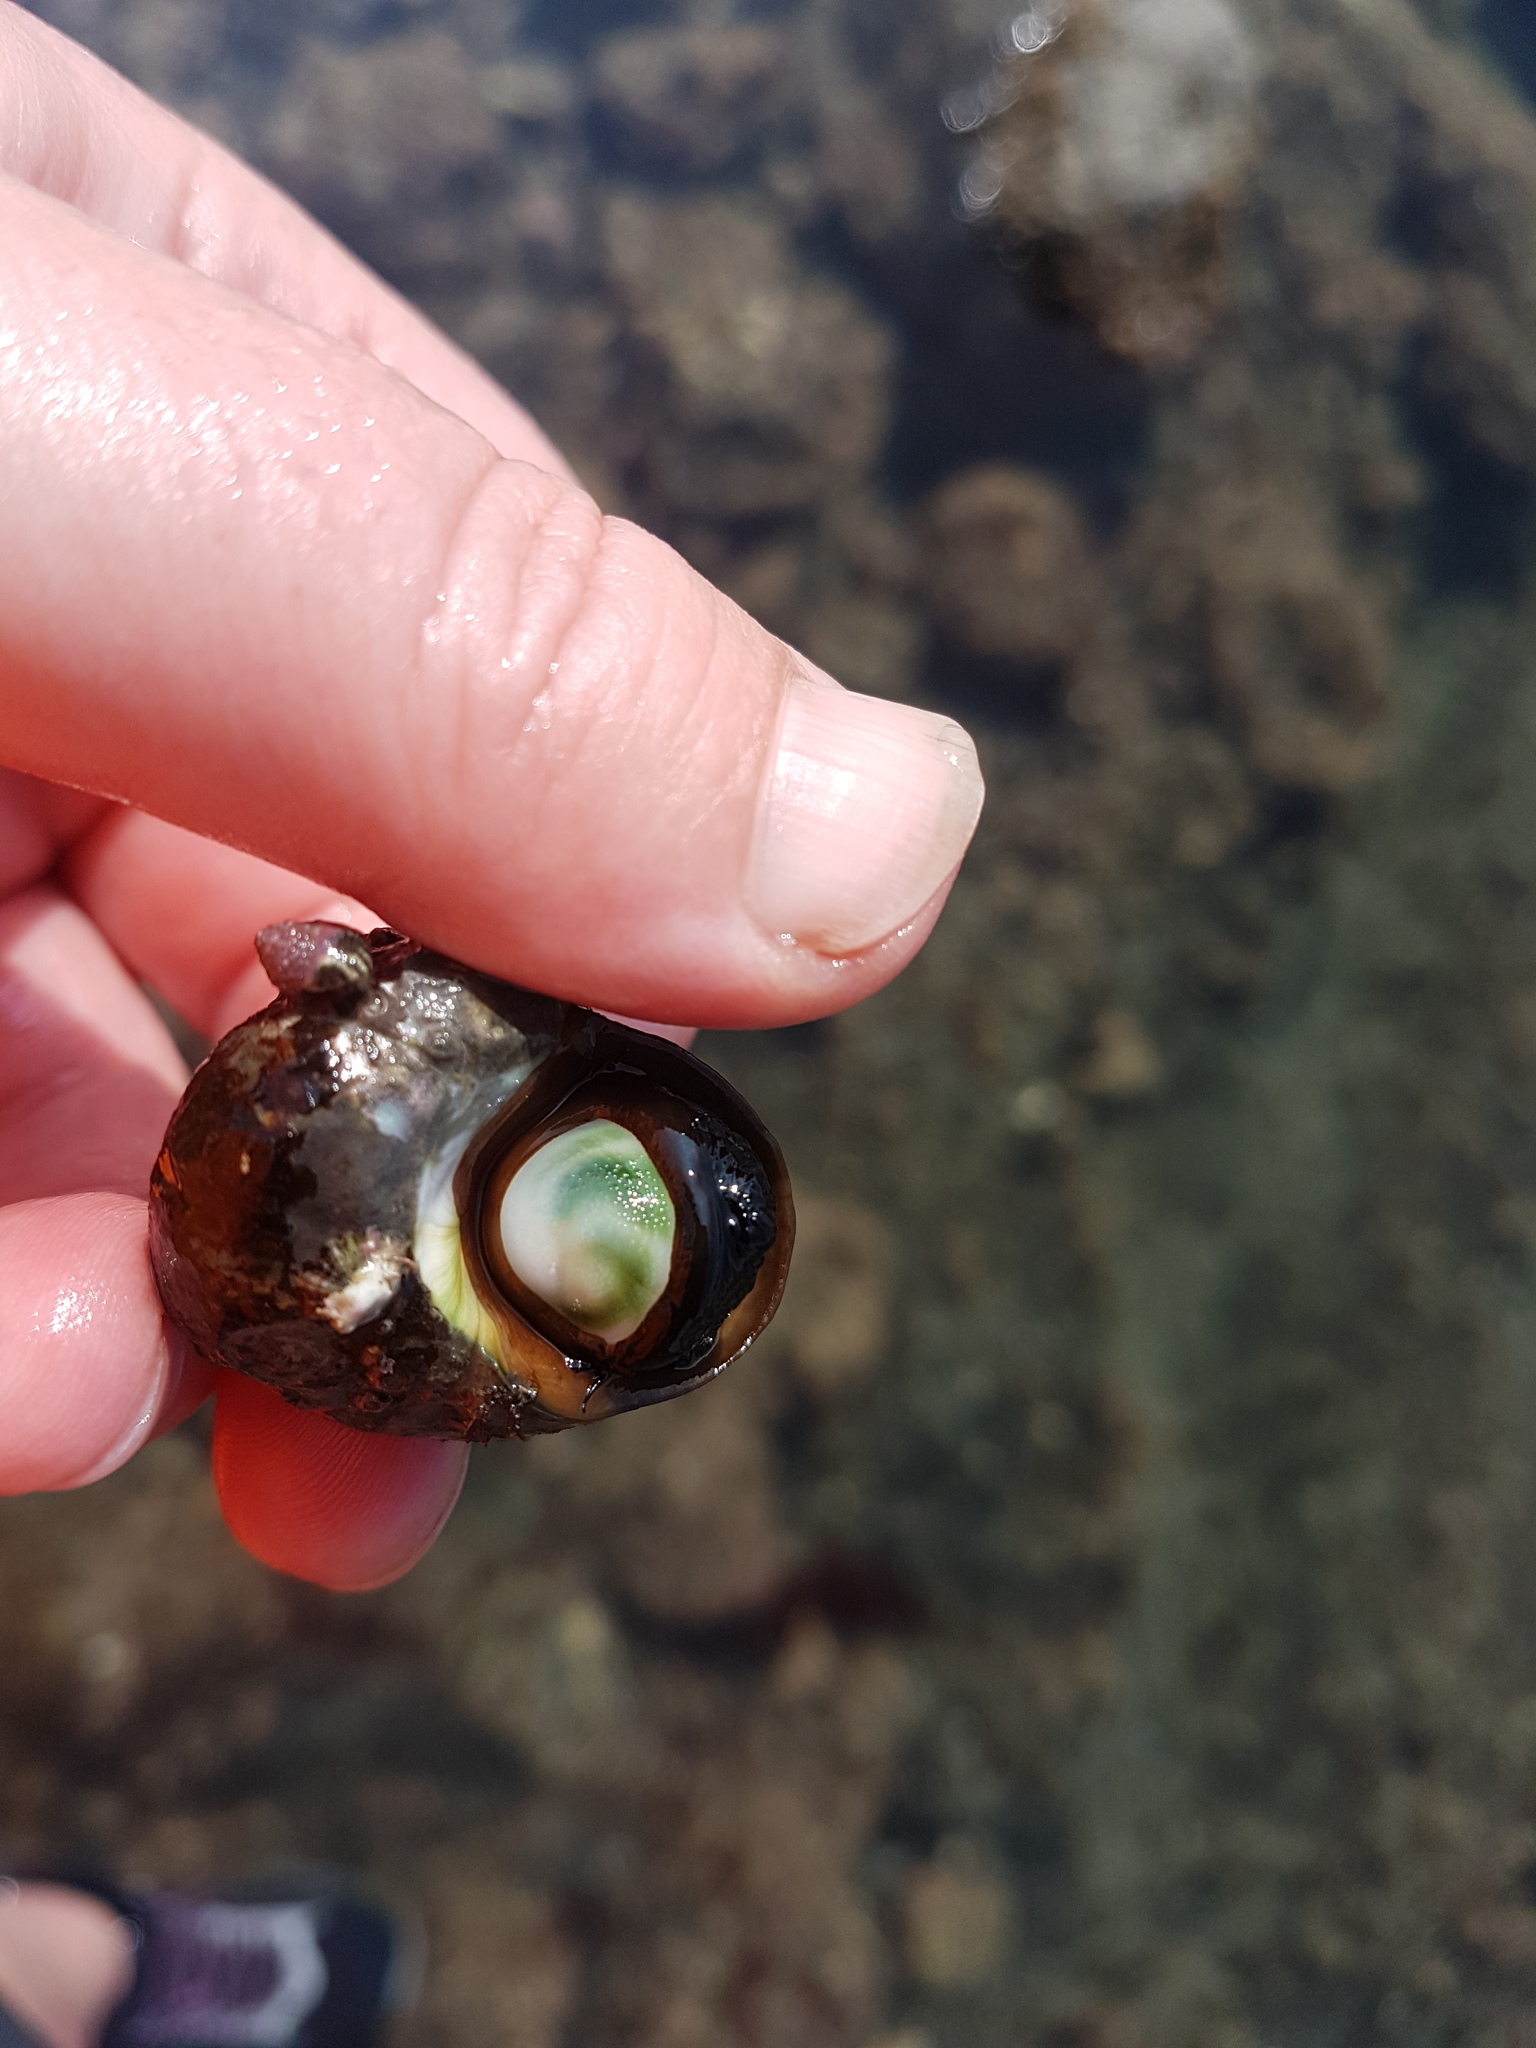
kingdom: Animalia
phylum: Mollusca
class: Gastropoda
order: Trochida
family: Turbinidae
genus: Lunella
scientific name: Lunella smaragda
